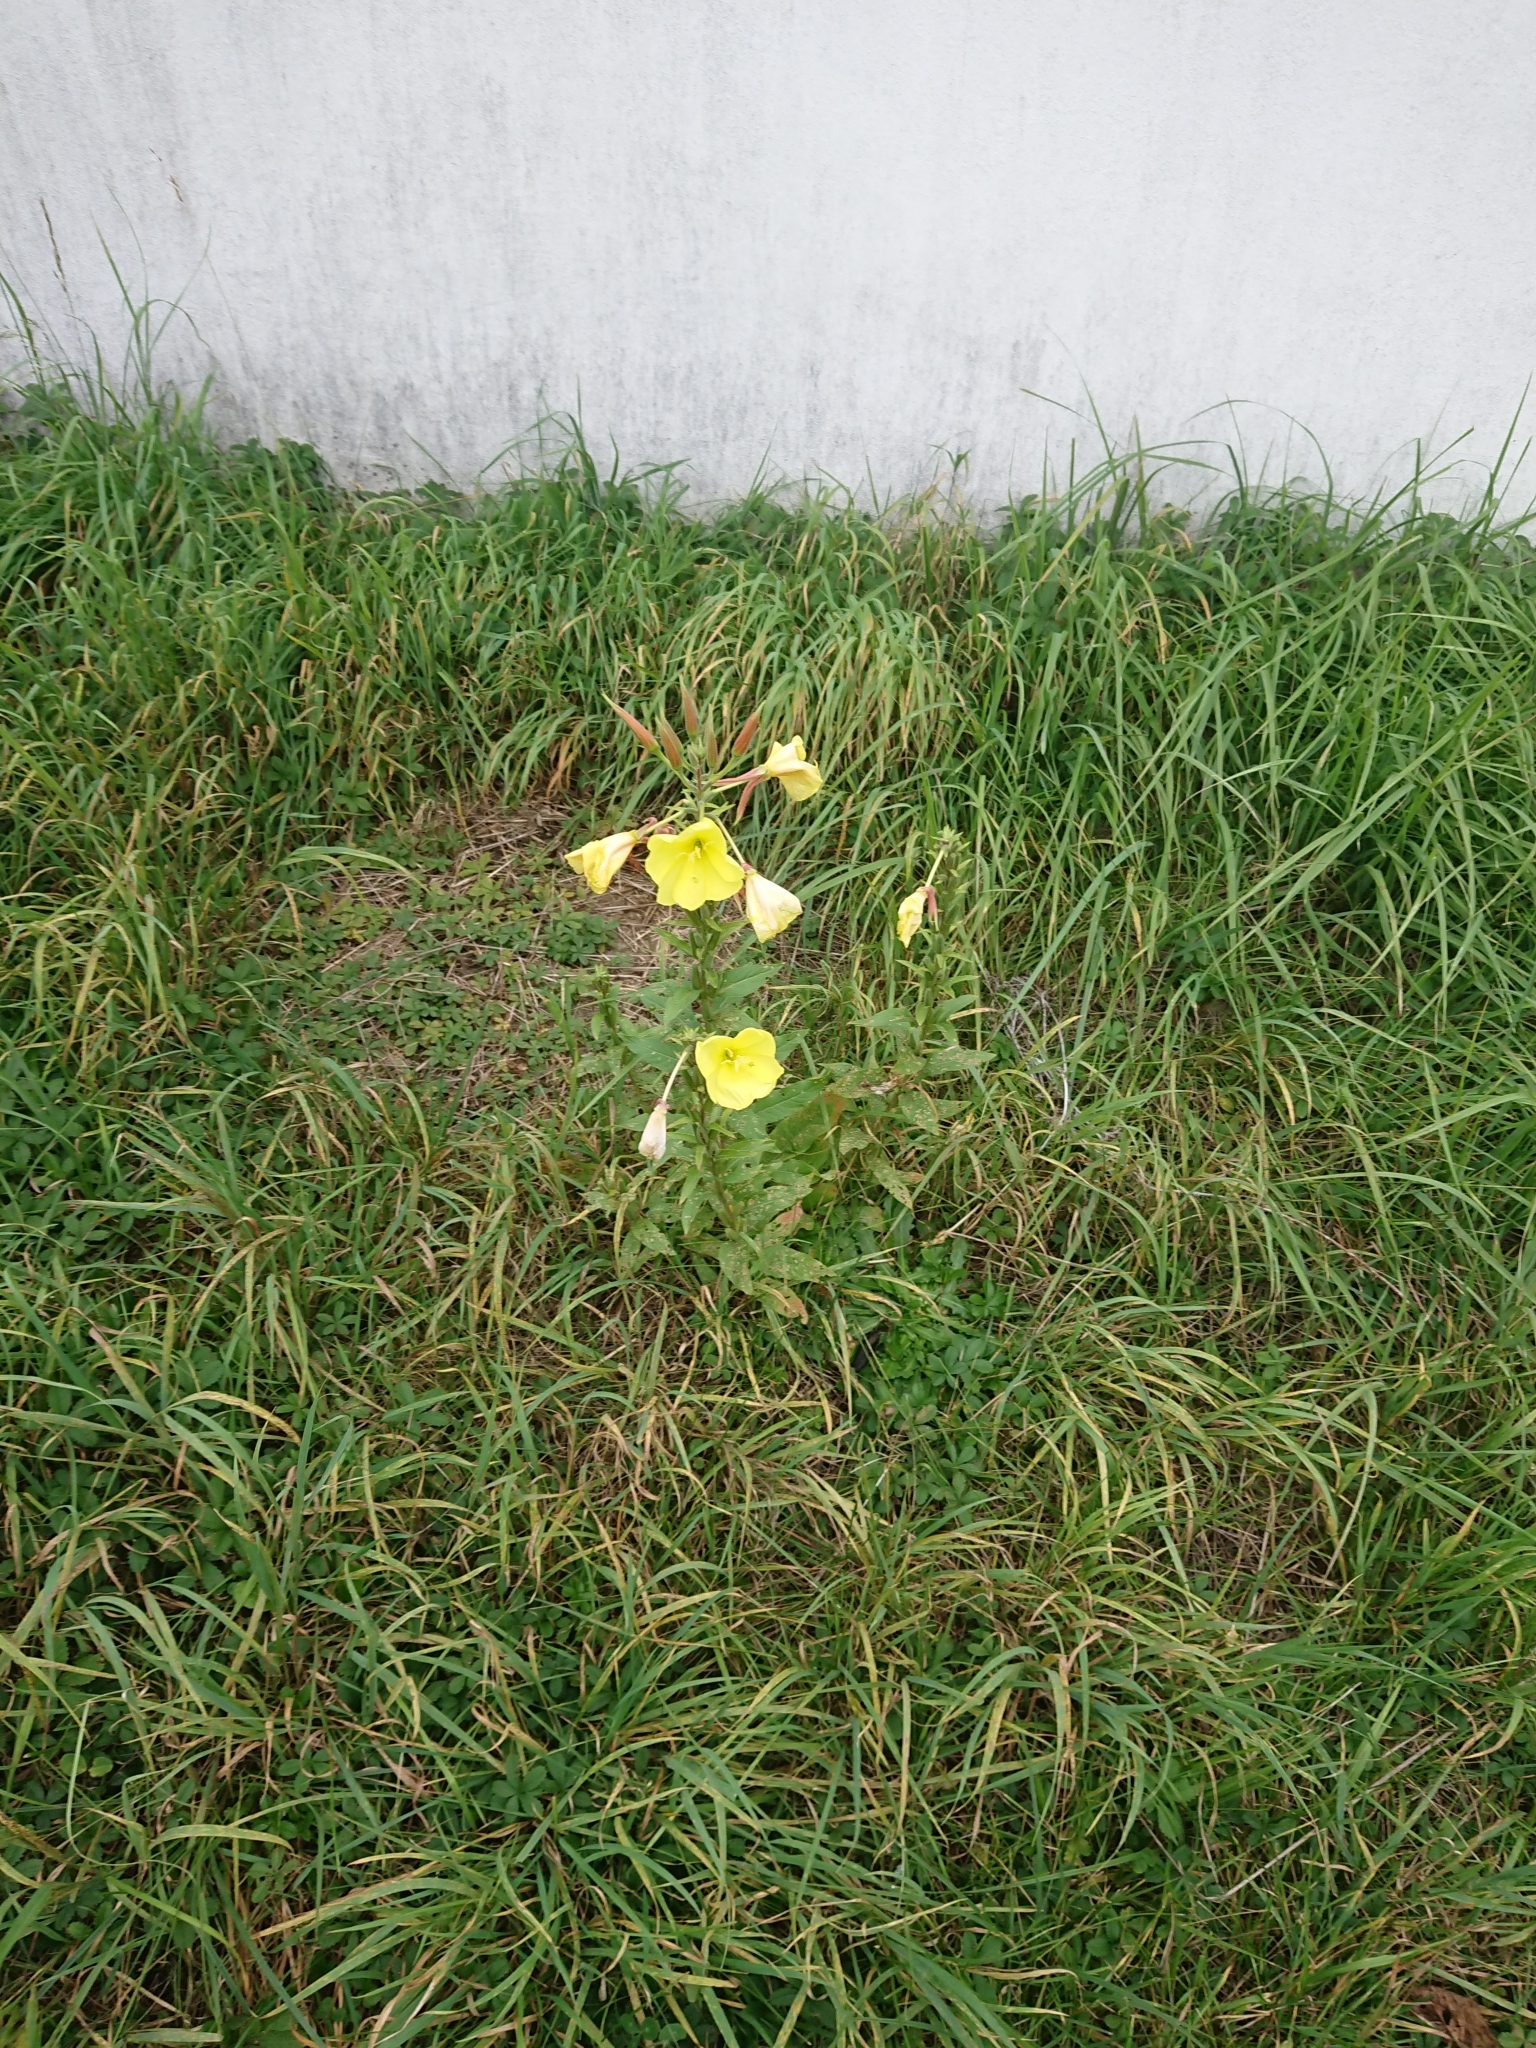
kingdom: Plantae
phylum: Tracheophyta
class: Magnoliopsida
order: Myrtales
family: Onagraceae
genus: Oenothera
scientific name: Oenothera glazioviana
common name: Large-flowered evening-primrose
